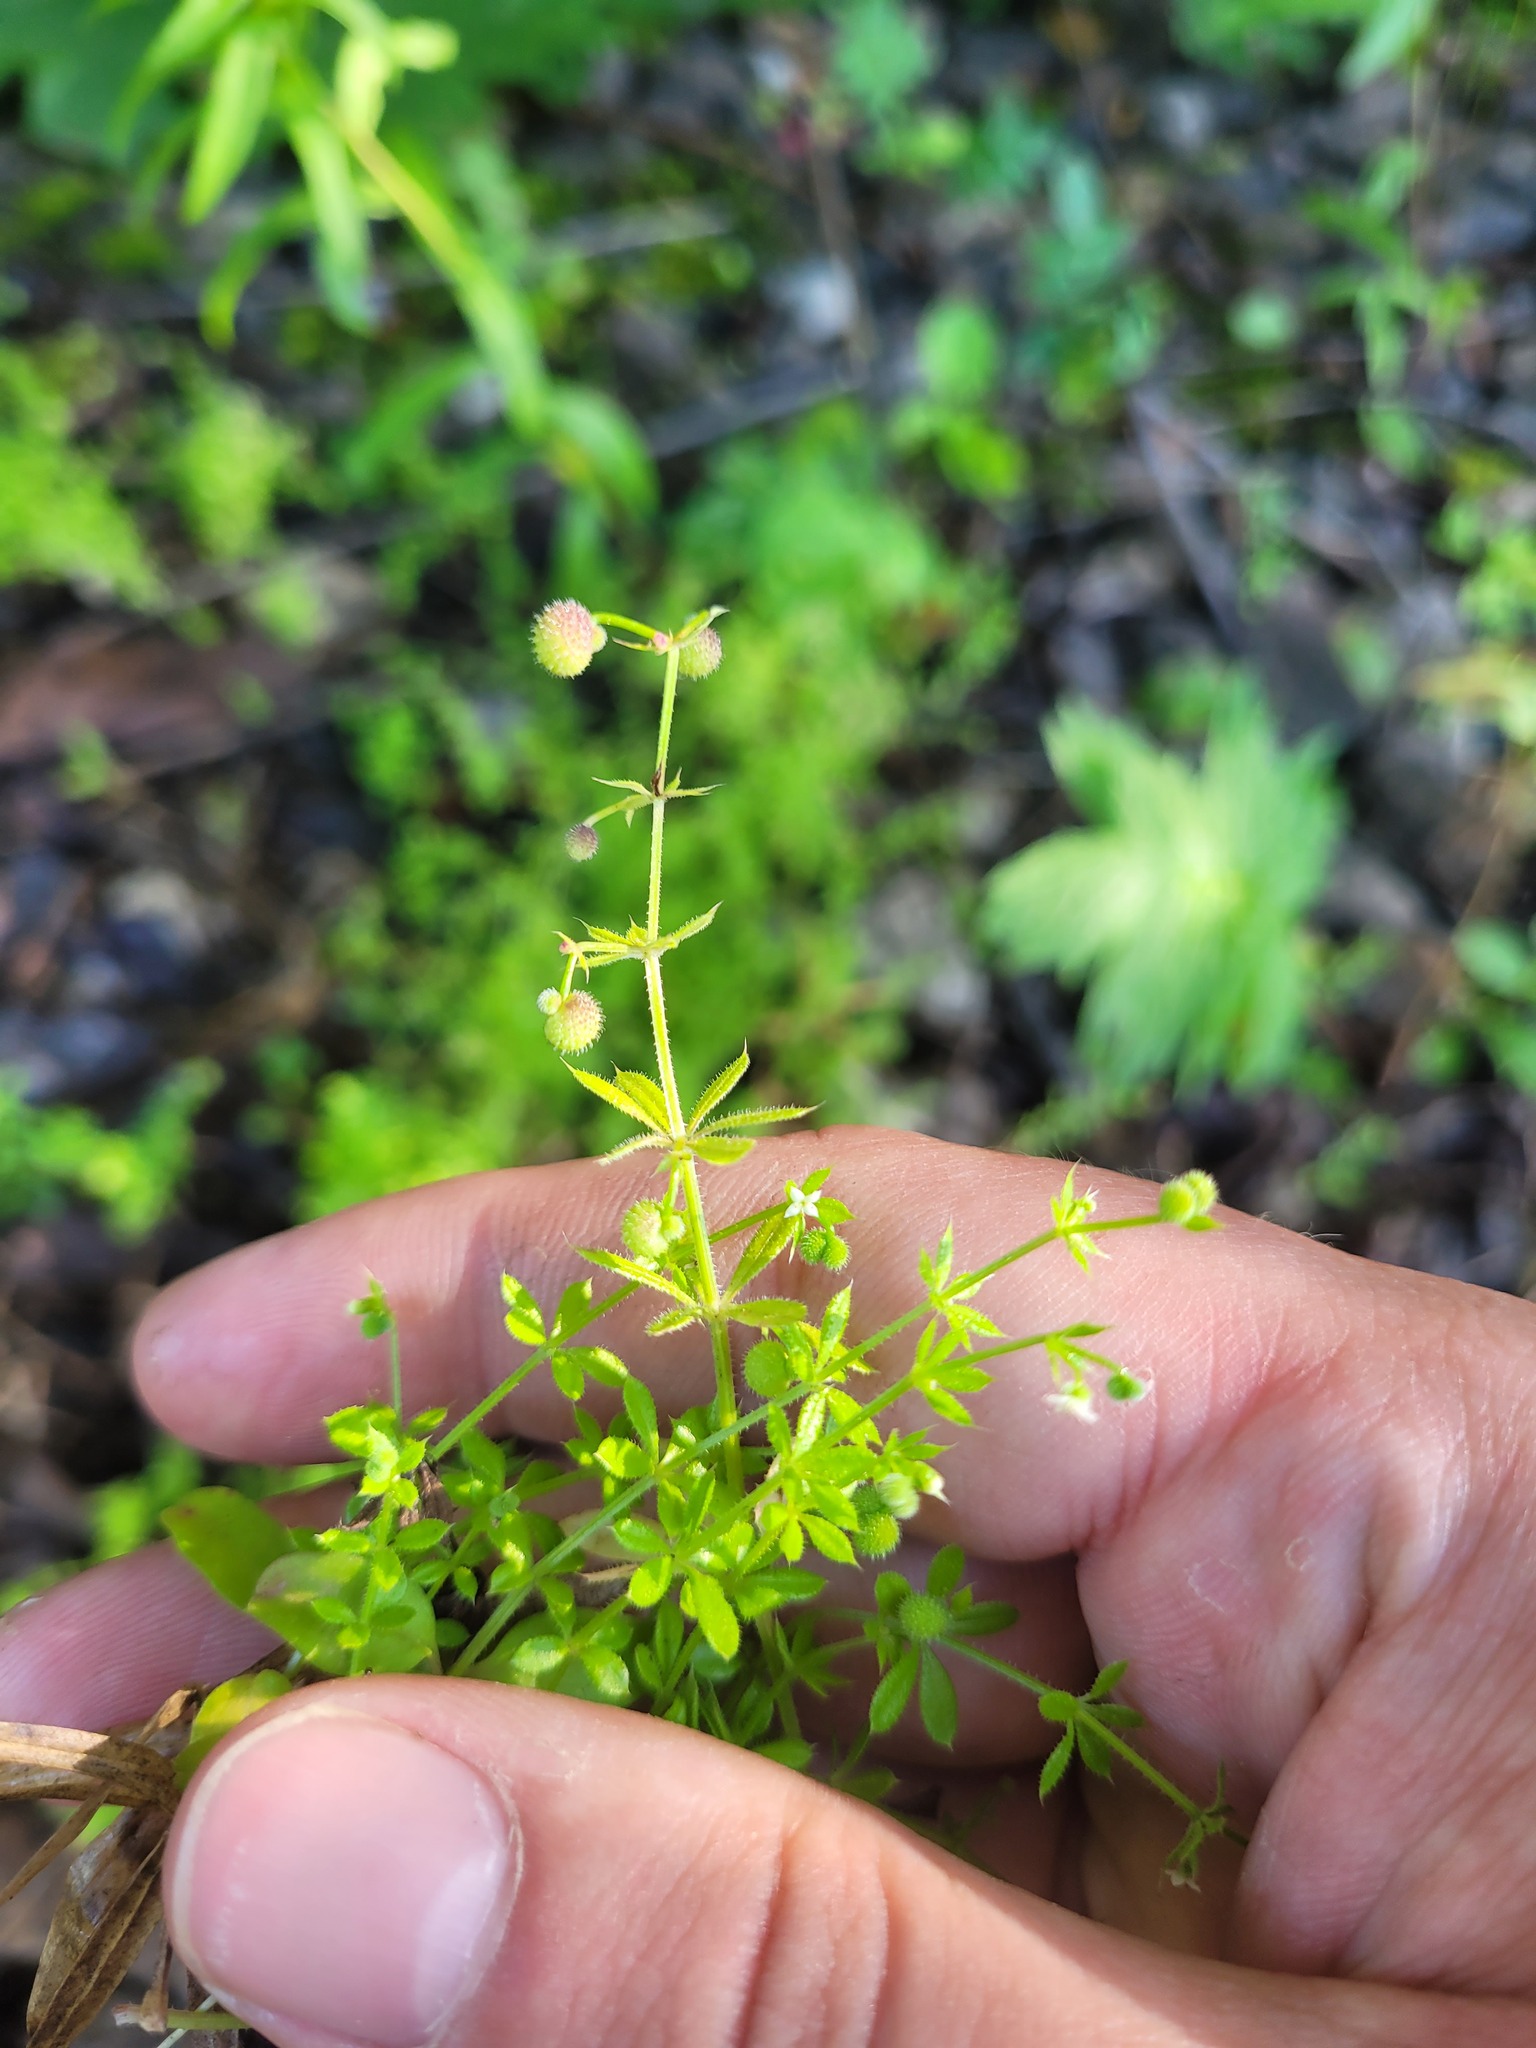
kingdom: Plantae
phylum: Tracheophyta
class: Magnoliopsida
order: Gentianales
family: Rubiaceae
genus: Galium
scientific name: Galium aparine
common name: Cleavers
